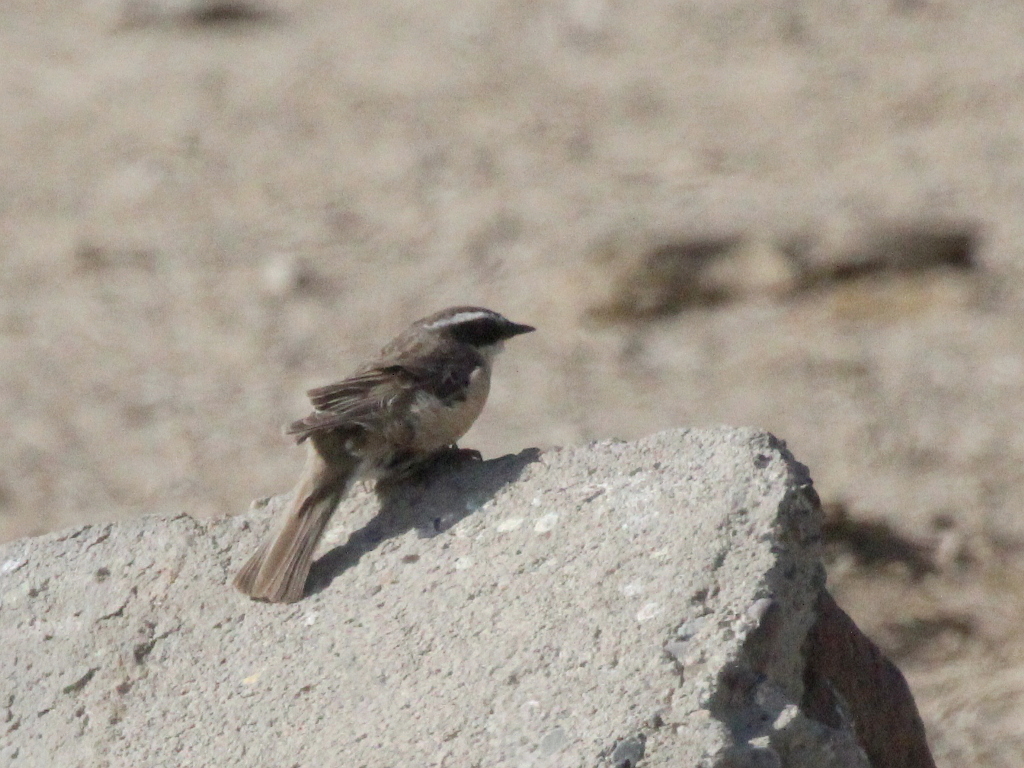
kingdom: Animalia
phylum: Chordata
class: Aves
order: Passeriformes
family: Prunellidae
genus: Prunella
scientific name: Prunella fulvescens
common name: Brown accentor
